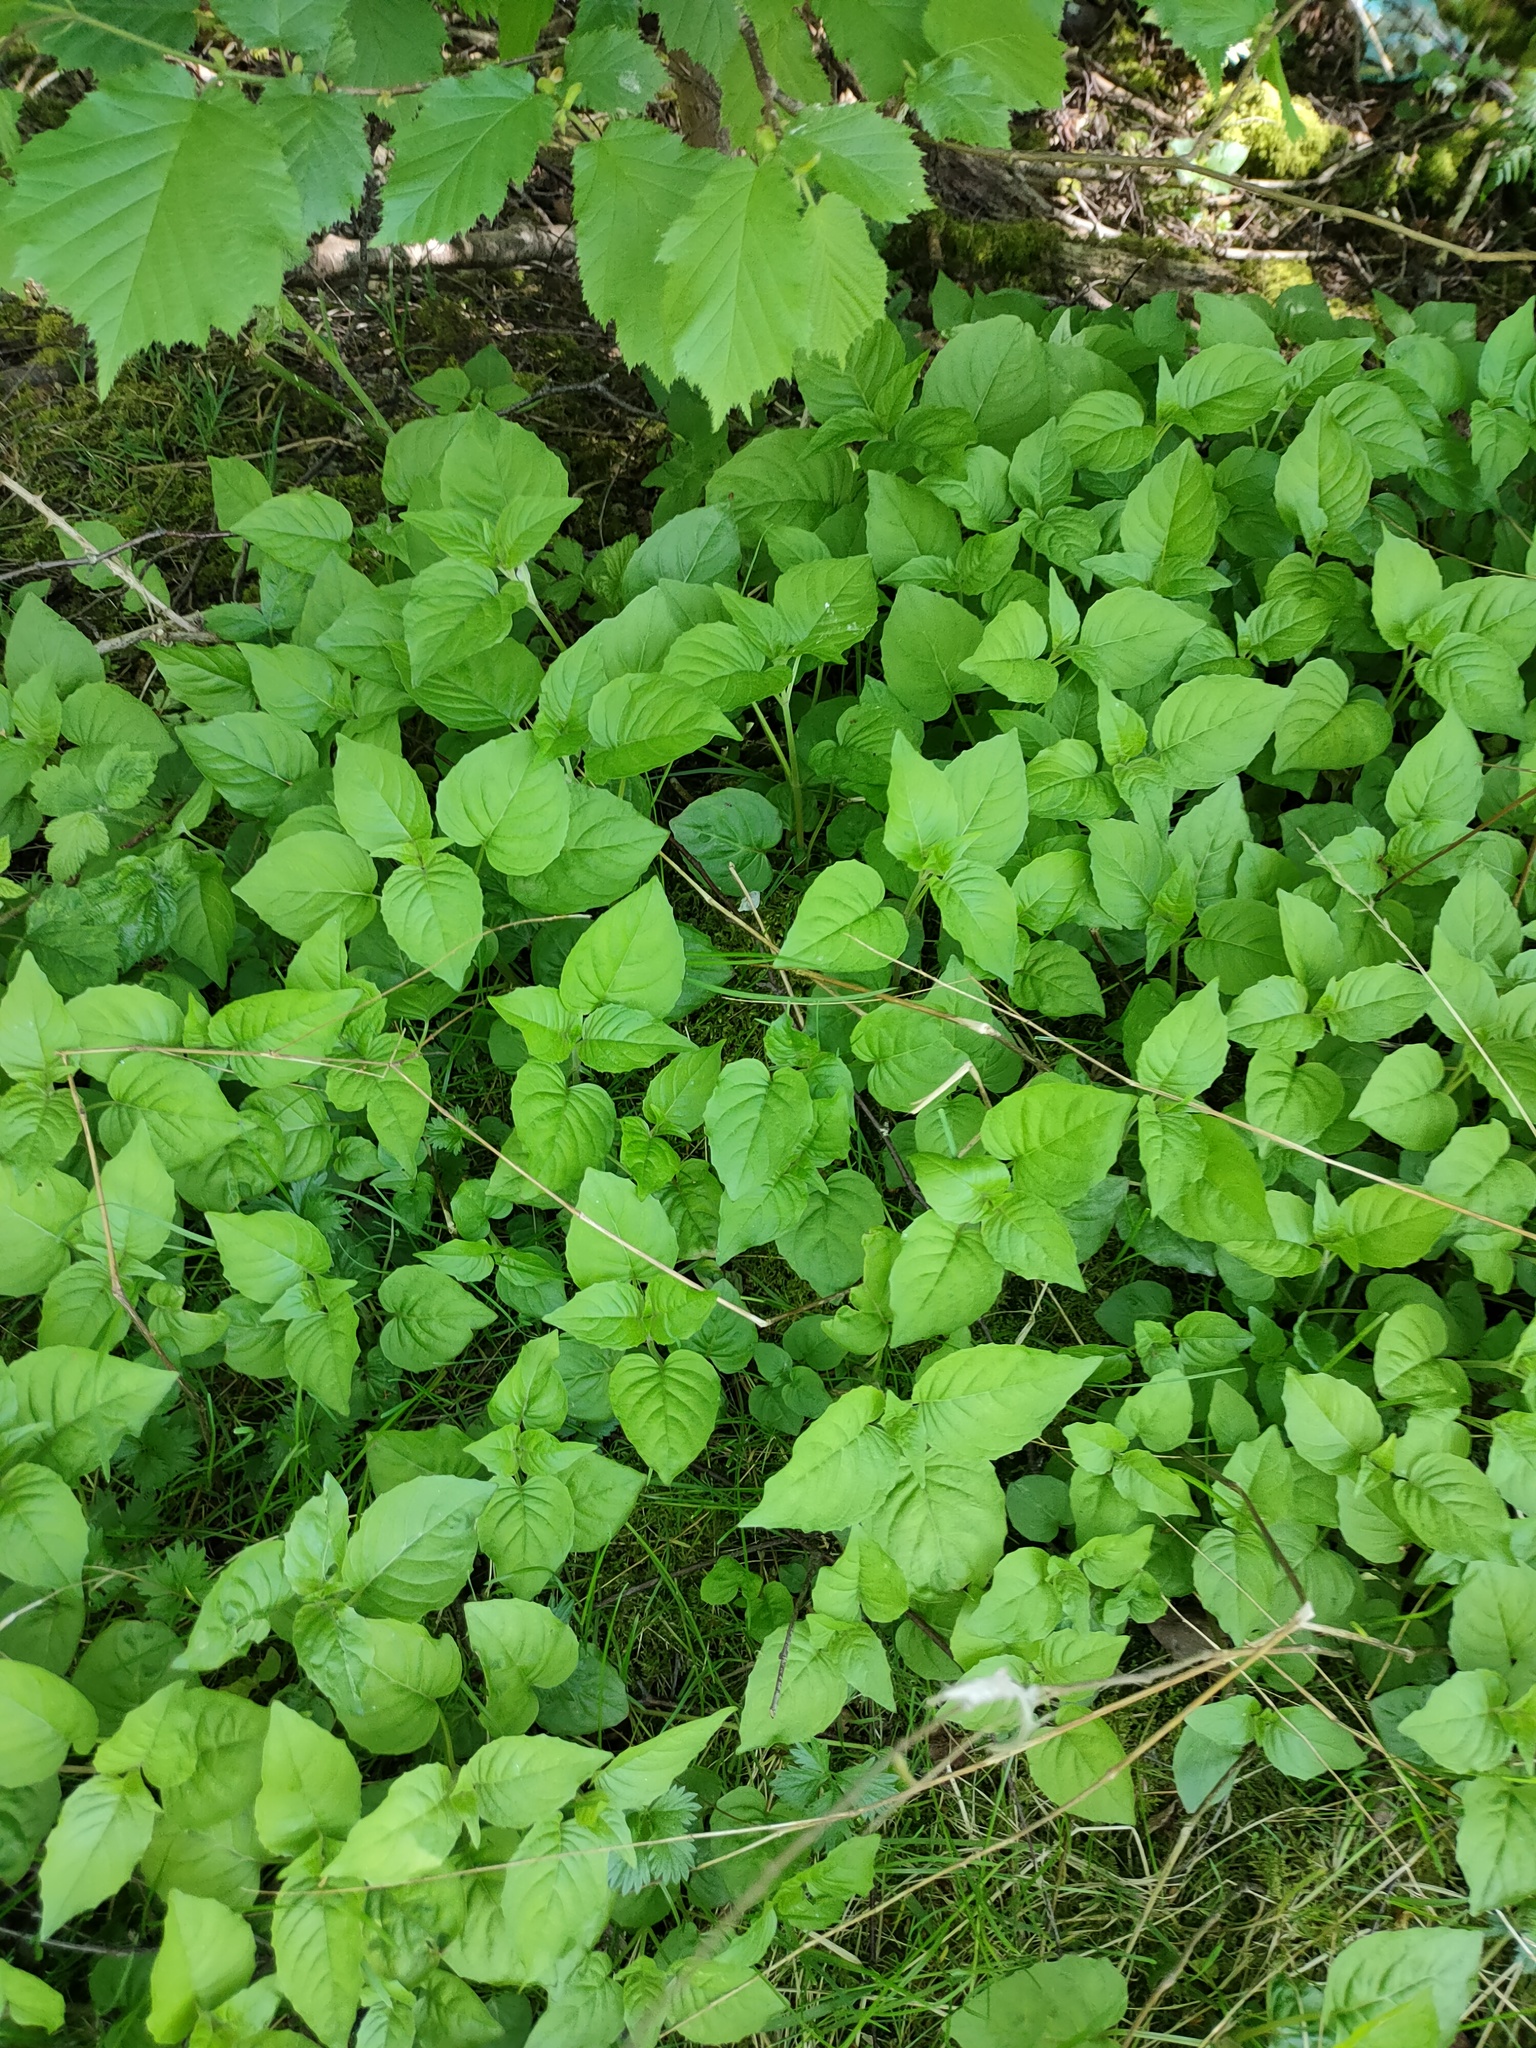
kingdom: Plantae
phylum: Tracheophyta
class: Magnoliopsida
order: Myrtales
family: Onagraceae
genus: Circaea
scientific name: Circaea lutetiana
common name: Enchanter's-nightshade
